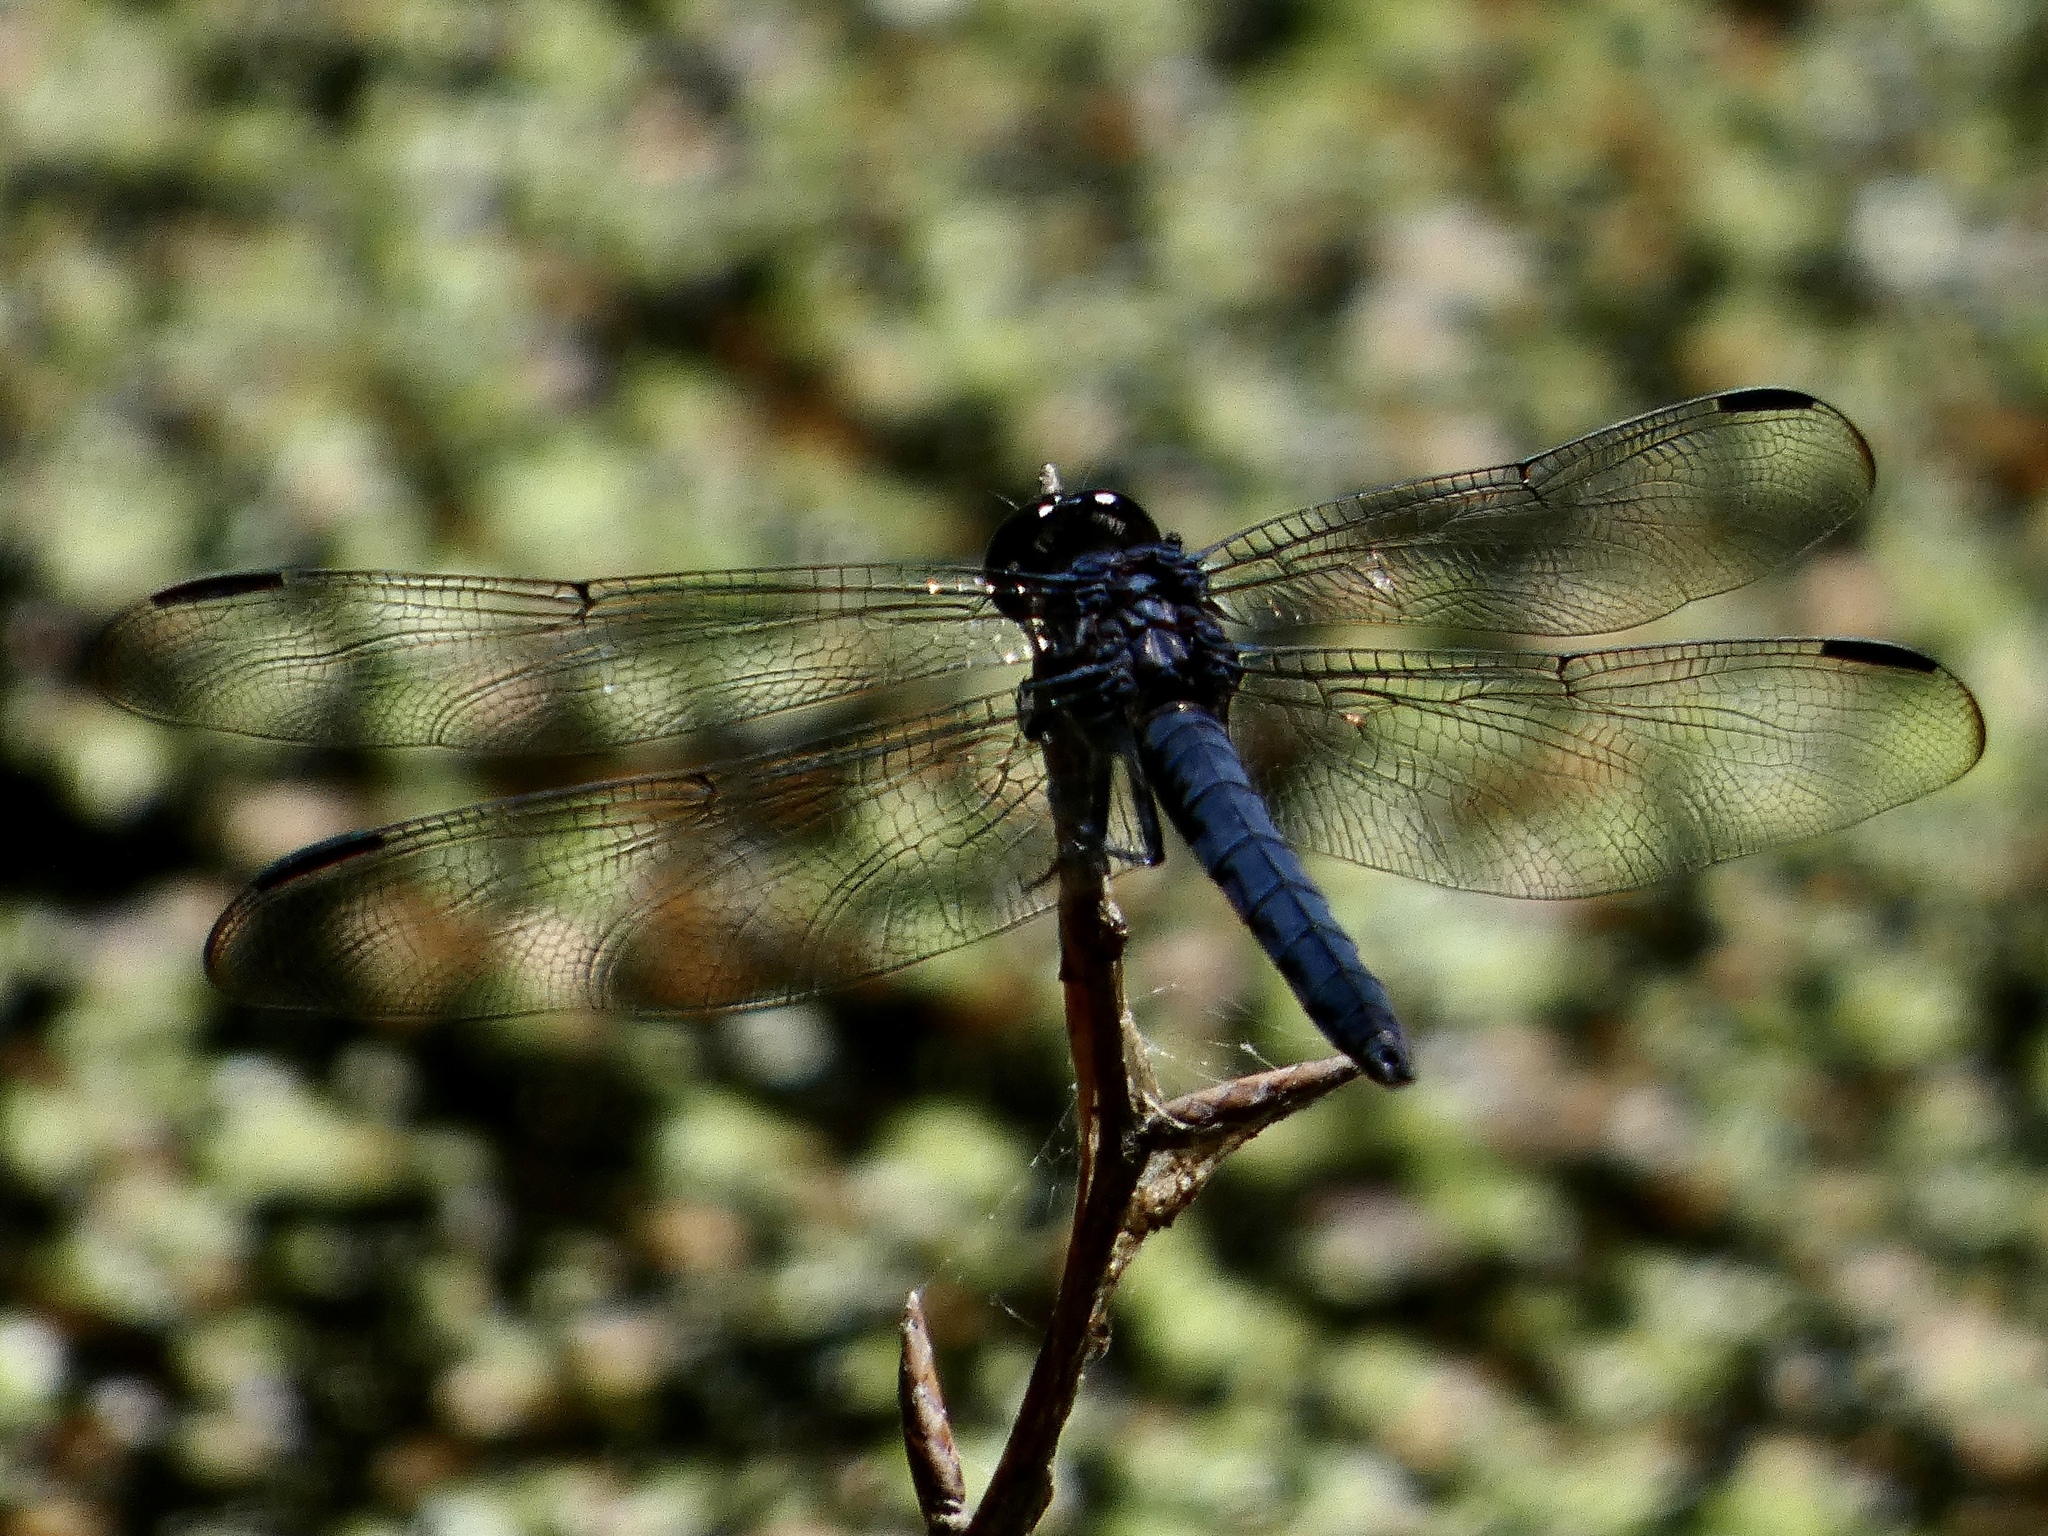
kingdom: Animalia
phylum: Arthropoda
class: Insecta
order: Odonata
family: Libellulidae
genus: Libellula
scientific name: Libellula incesta
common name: Slaty skimmer
